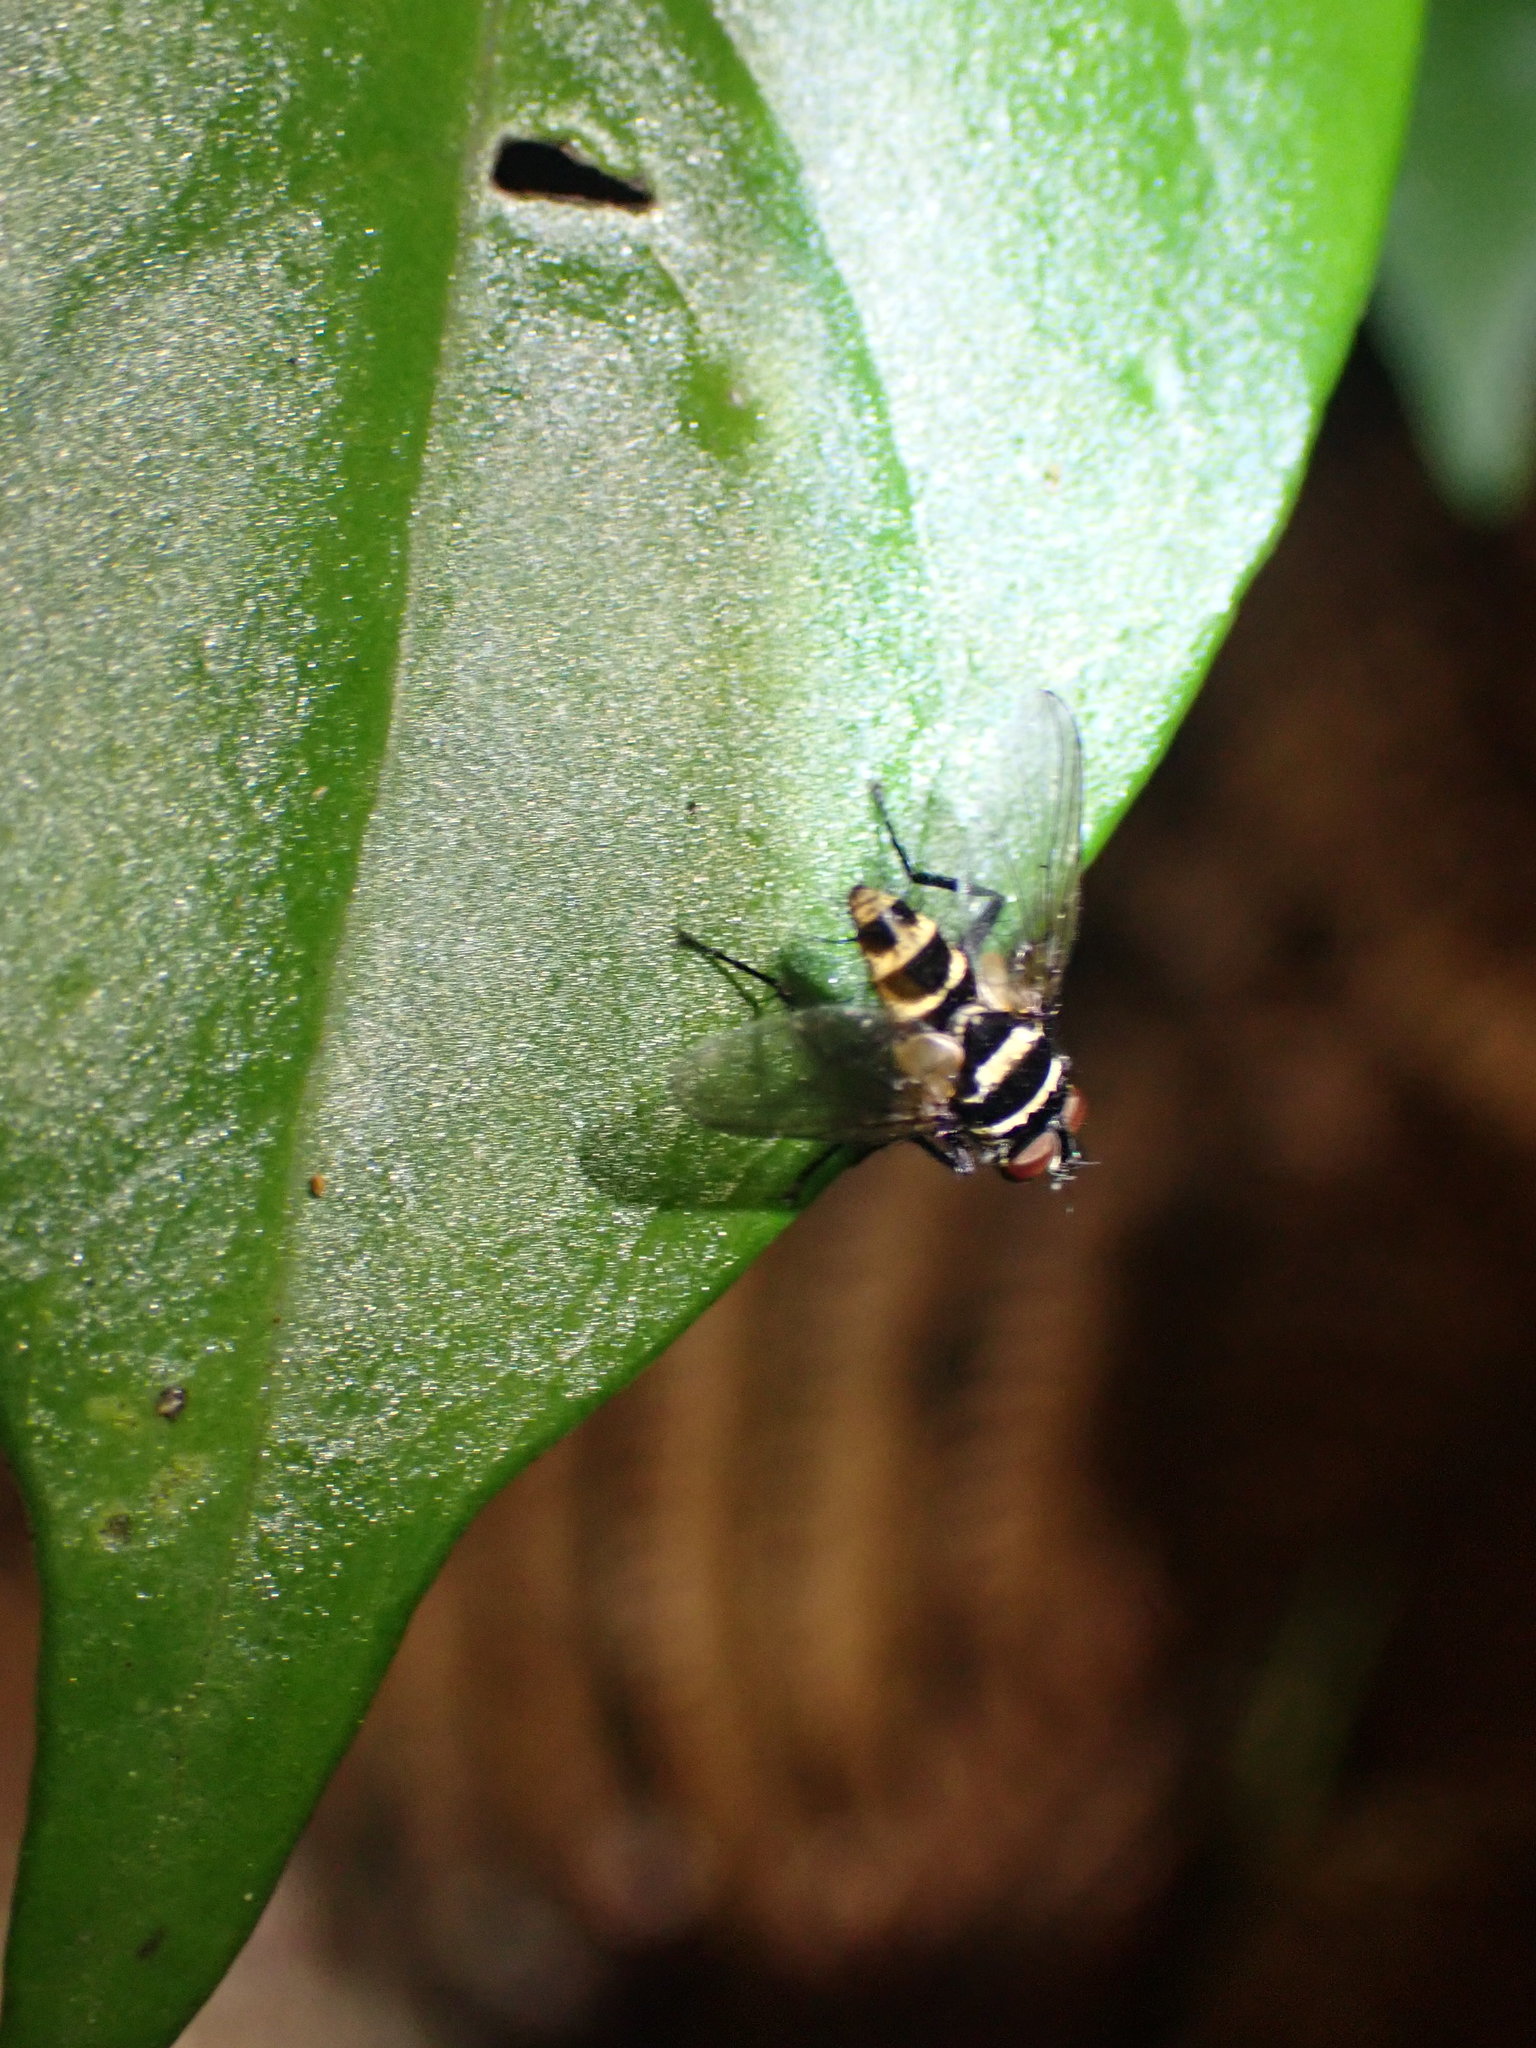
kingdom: Animalia
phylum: Arthropoda
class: Insecta
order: Diptera
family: Tachinidae
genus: Trigonospila
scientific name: Trigonospila brevifacies
